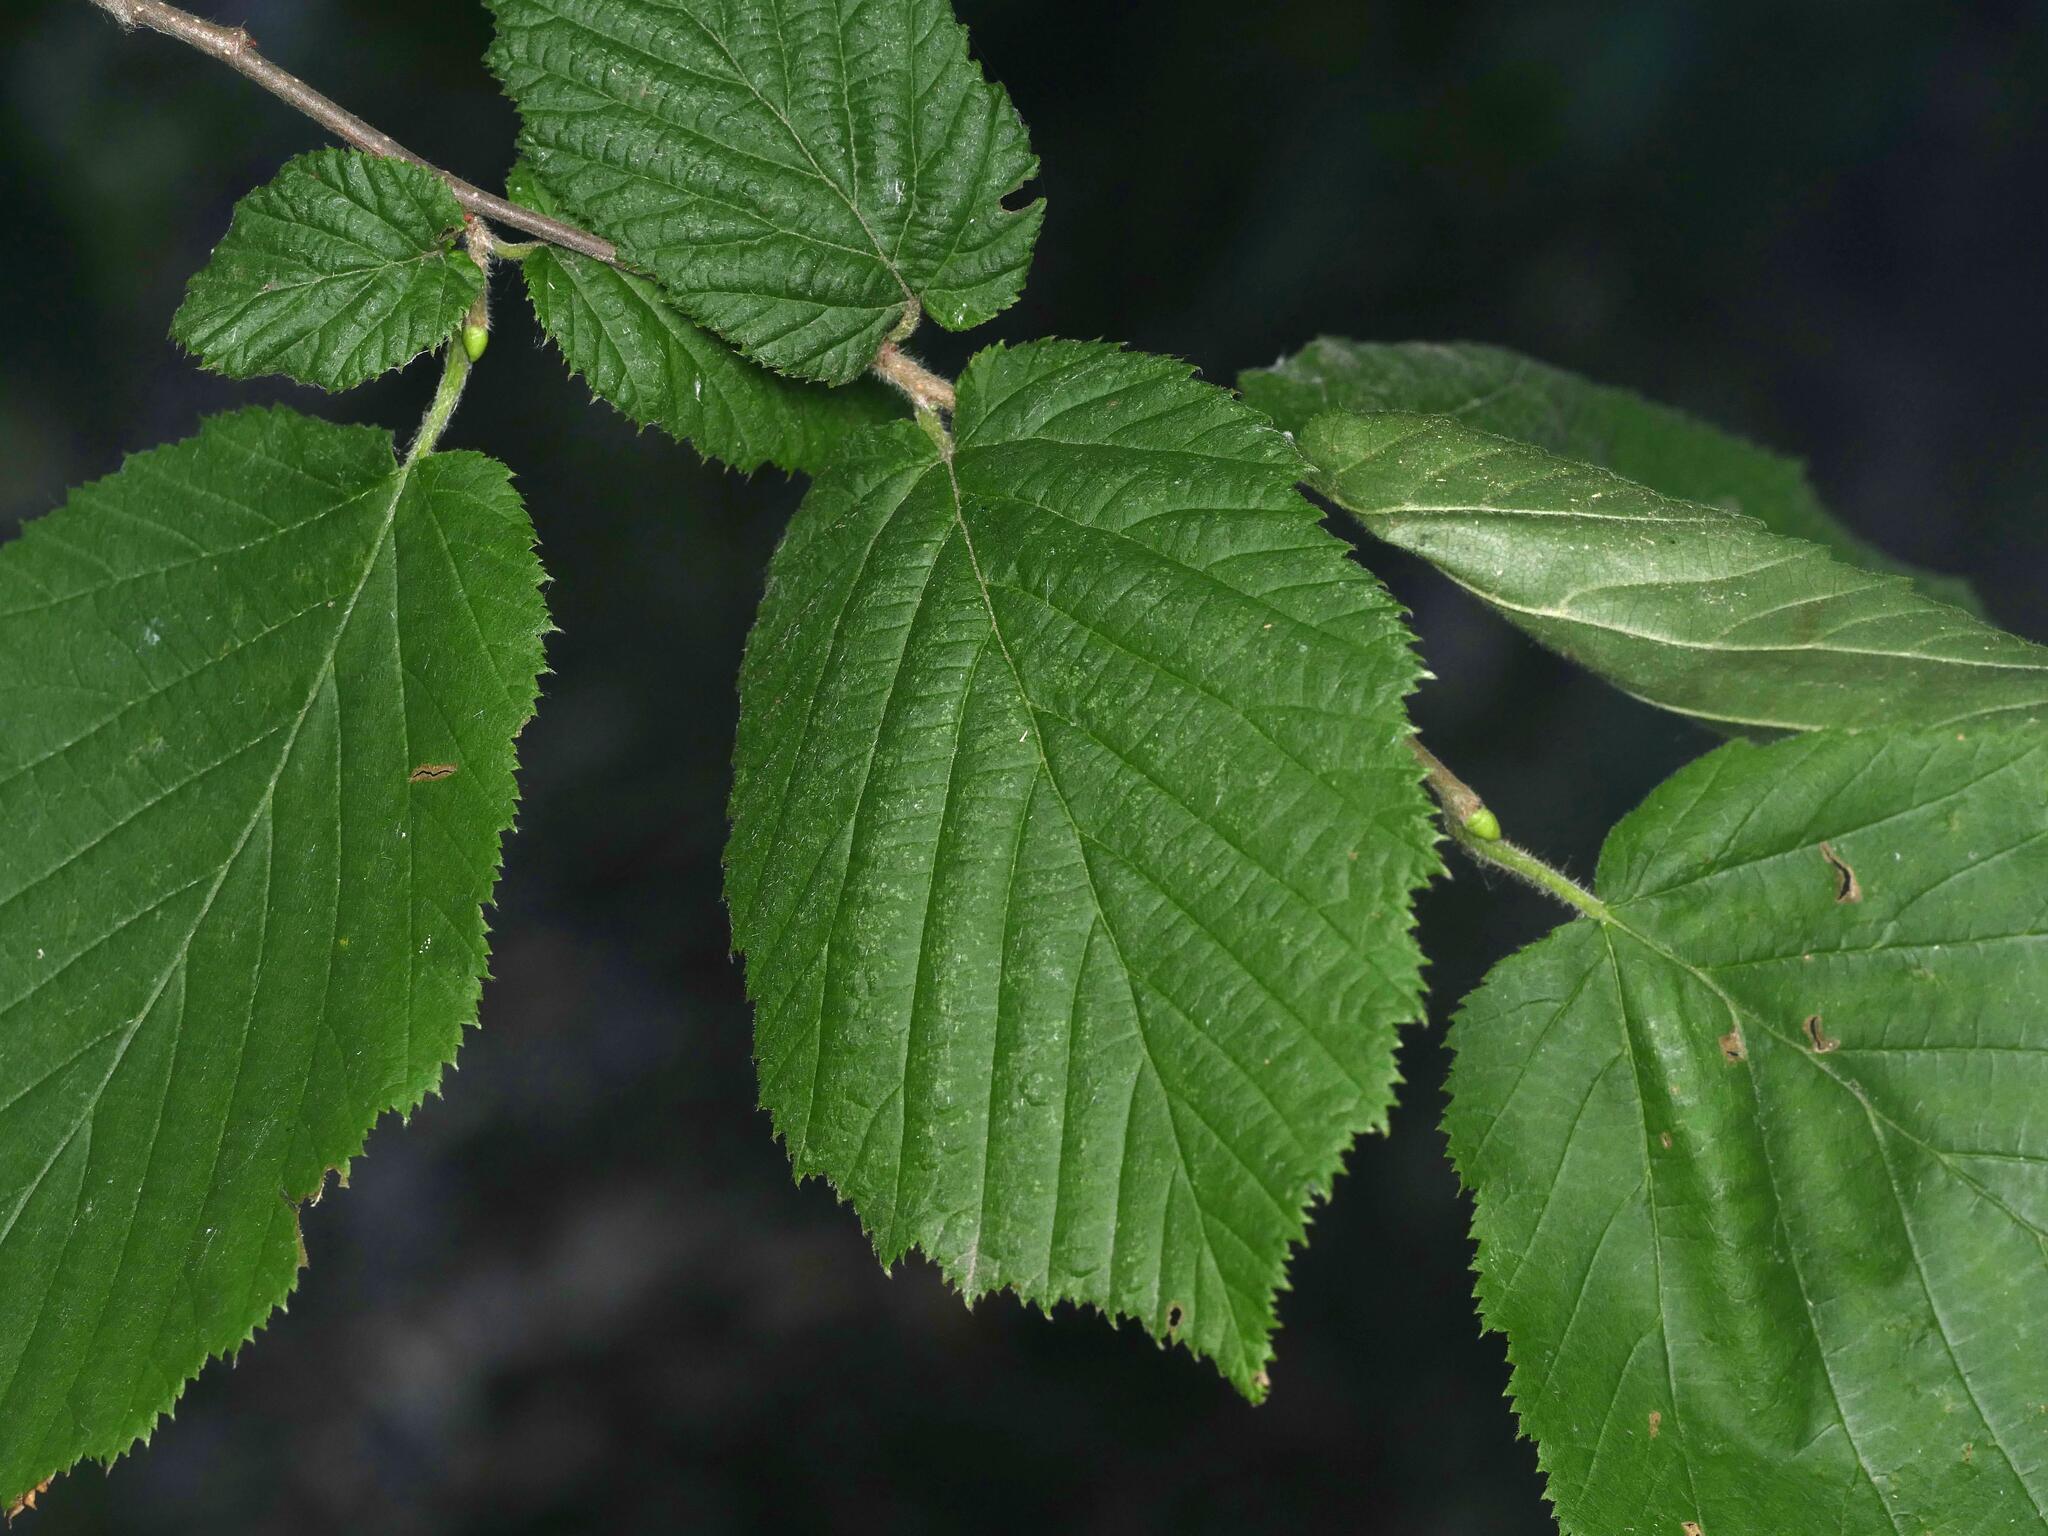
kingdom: Plantae
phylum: Tracheophyta
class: Magnoliopsida
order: Fagales
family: Betulaceae
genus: Corylus
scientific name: Corylus avellana
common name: European hazel
